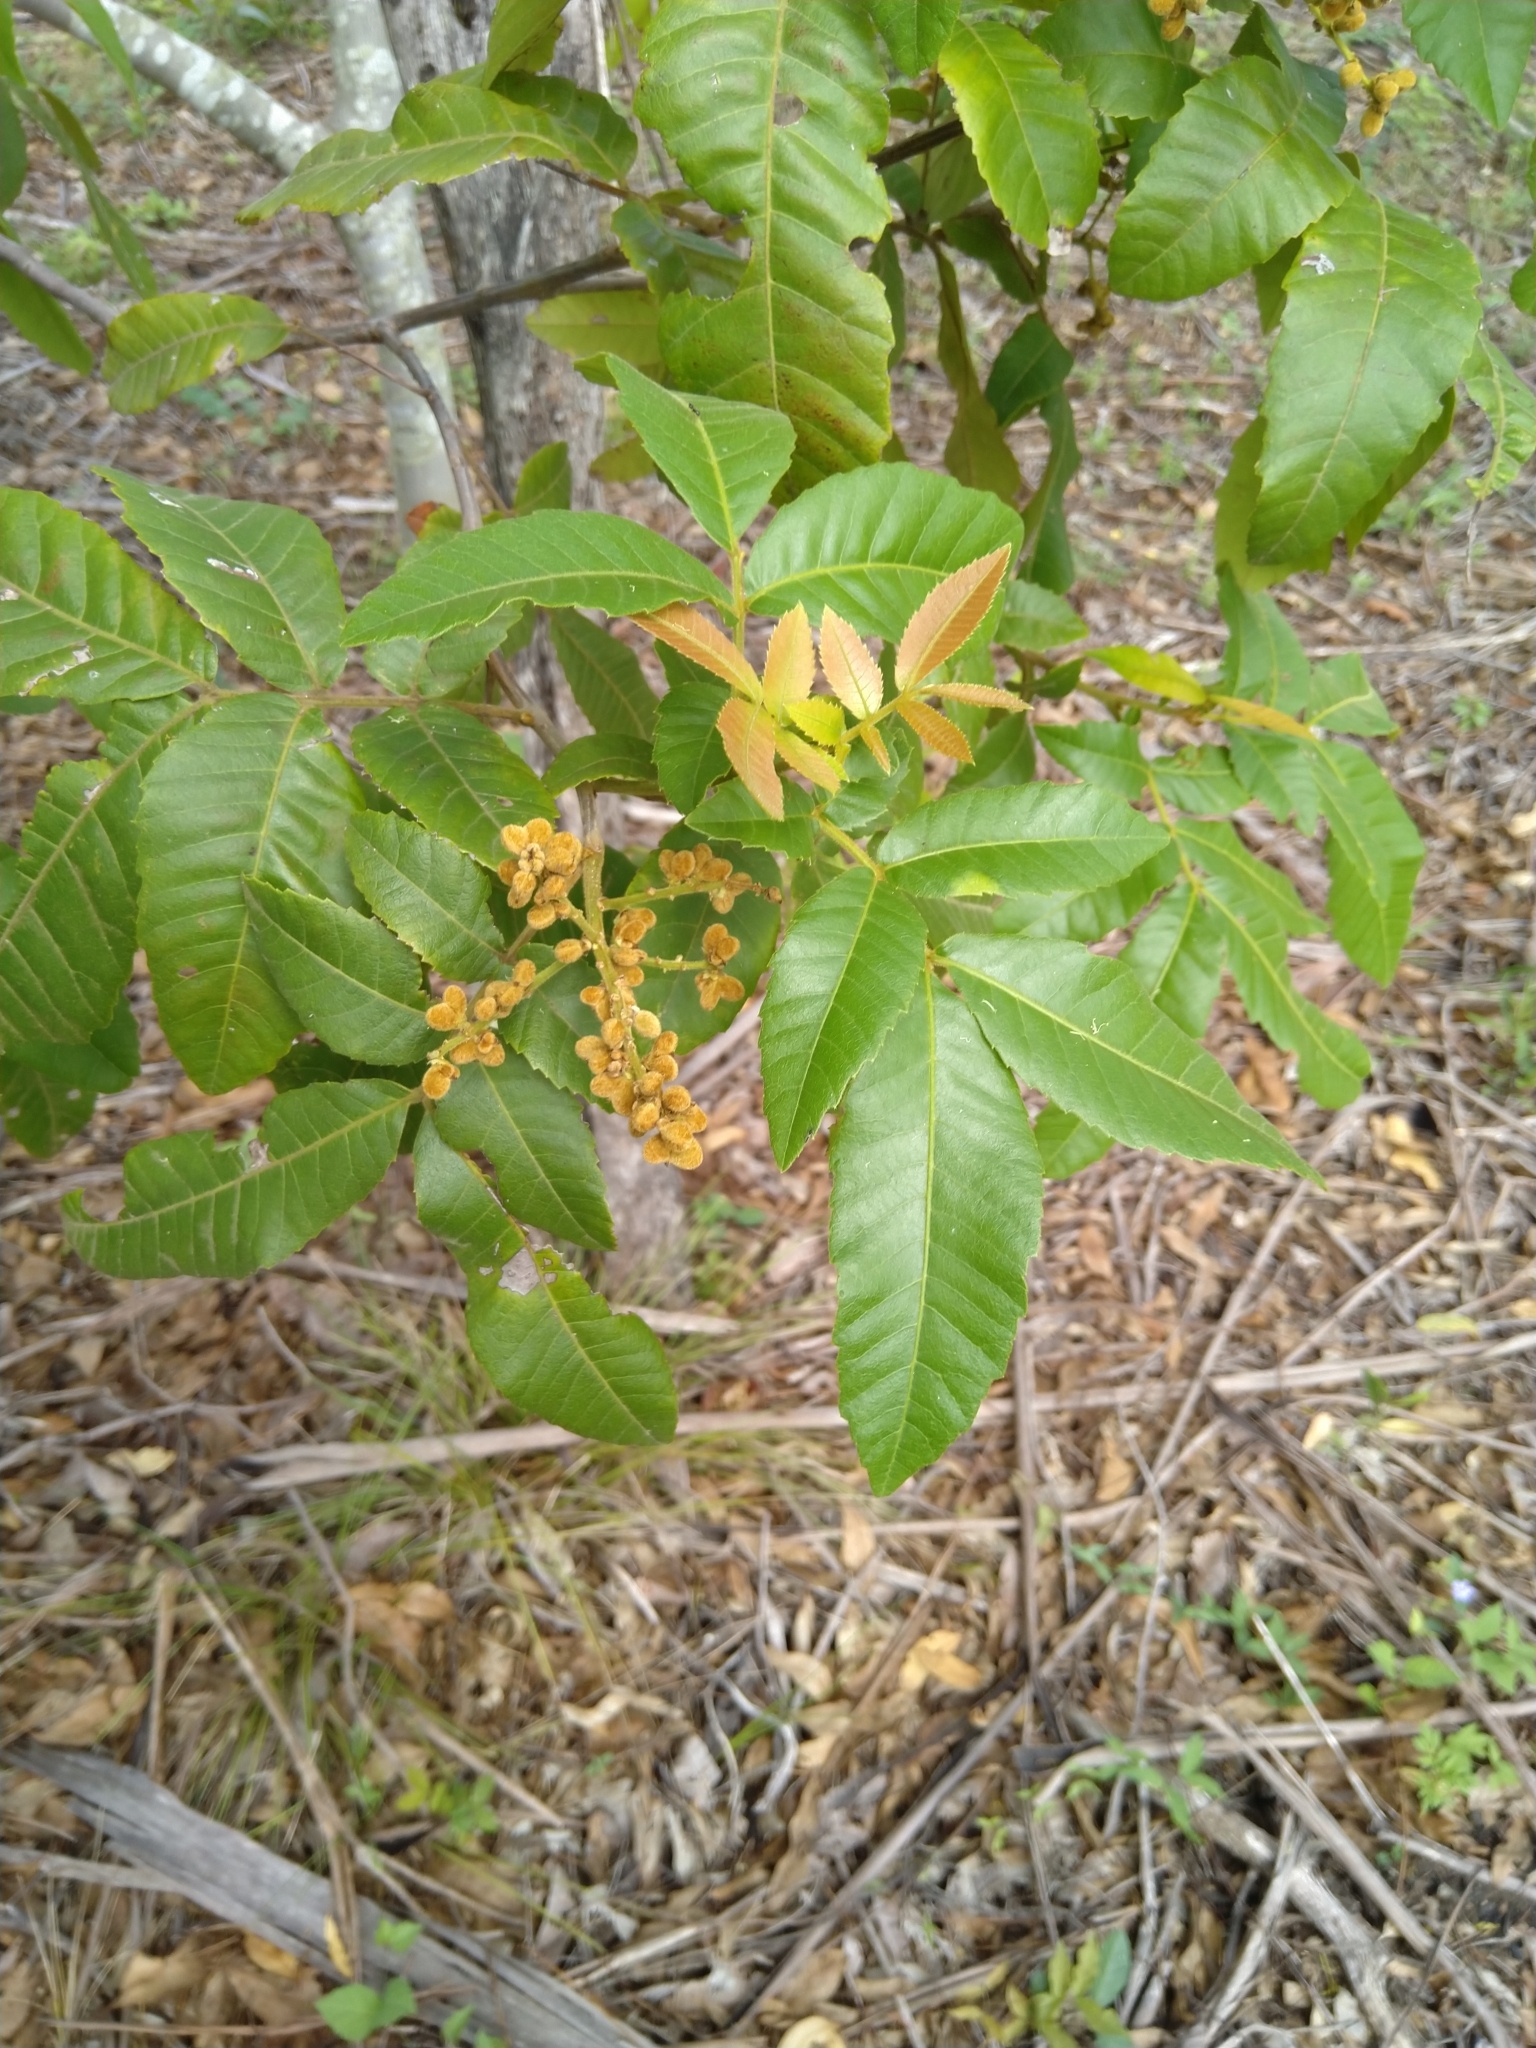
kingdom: Plantae
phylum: Tracheophyta
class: Magnoliopsida
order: Sapindales
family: Sapindaceae
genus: Alectryon
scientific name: Alectryon tomentosus
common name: Bed-jacket
